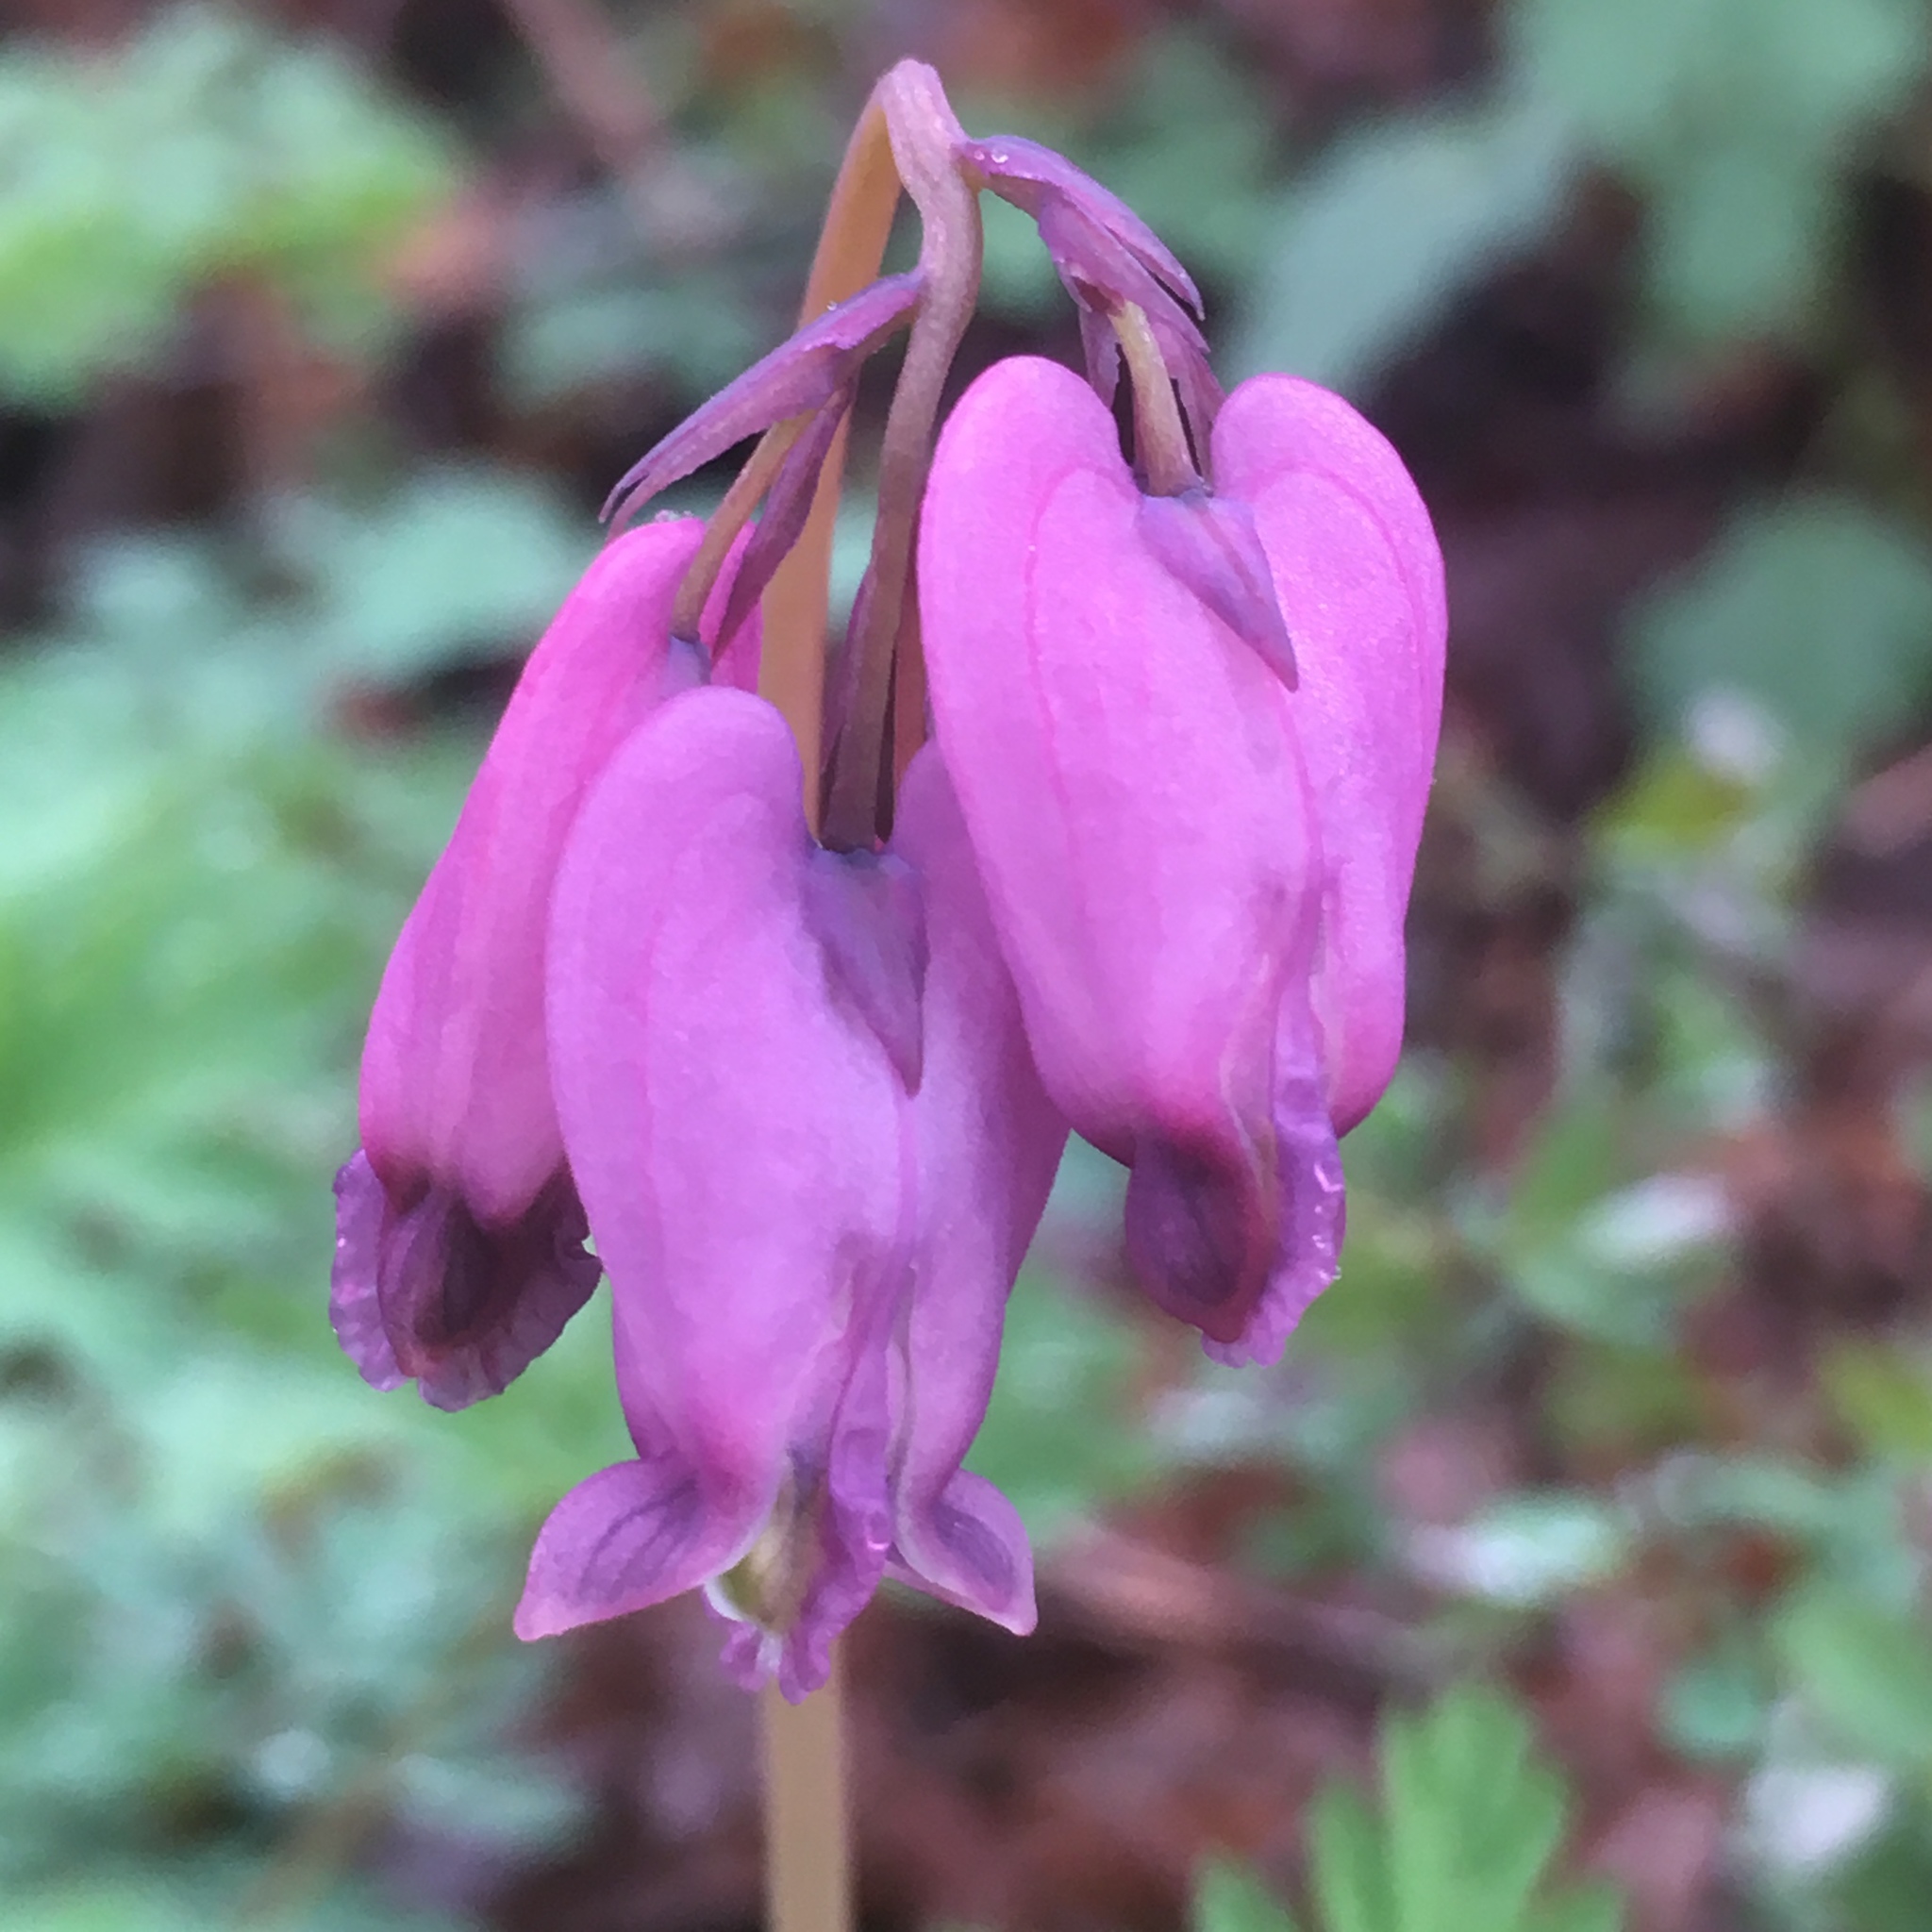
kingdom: Plantae
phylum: Tracheophyta
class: Magnoliopsida
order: Ranunculales
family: Papaveraceae
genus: Dicentra
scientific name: Dicentra formosa
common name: Bleeding-heart
